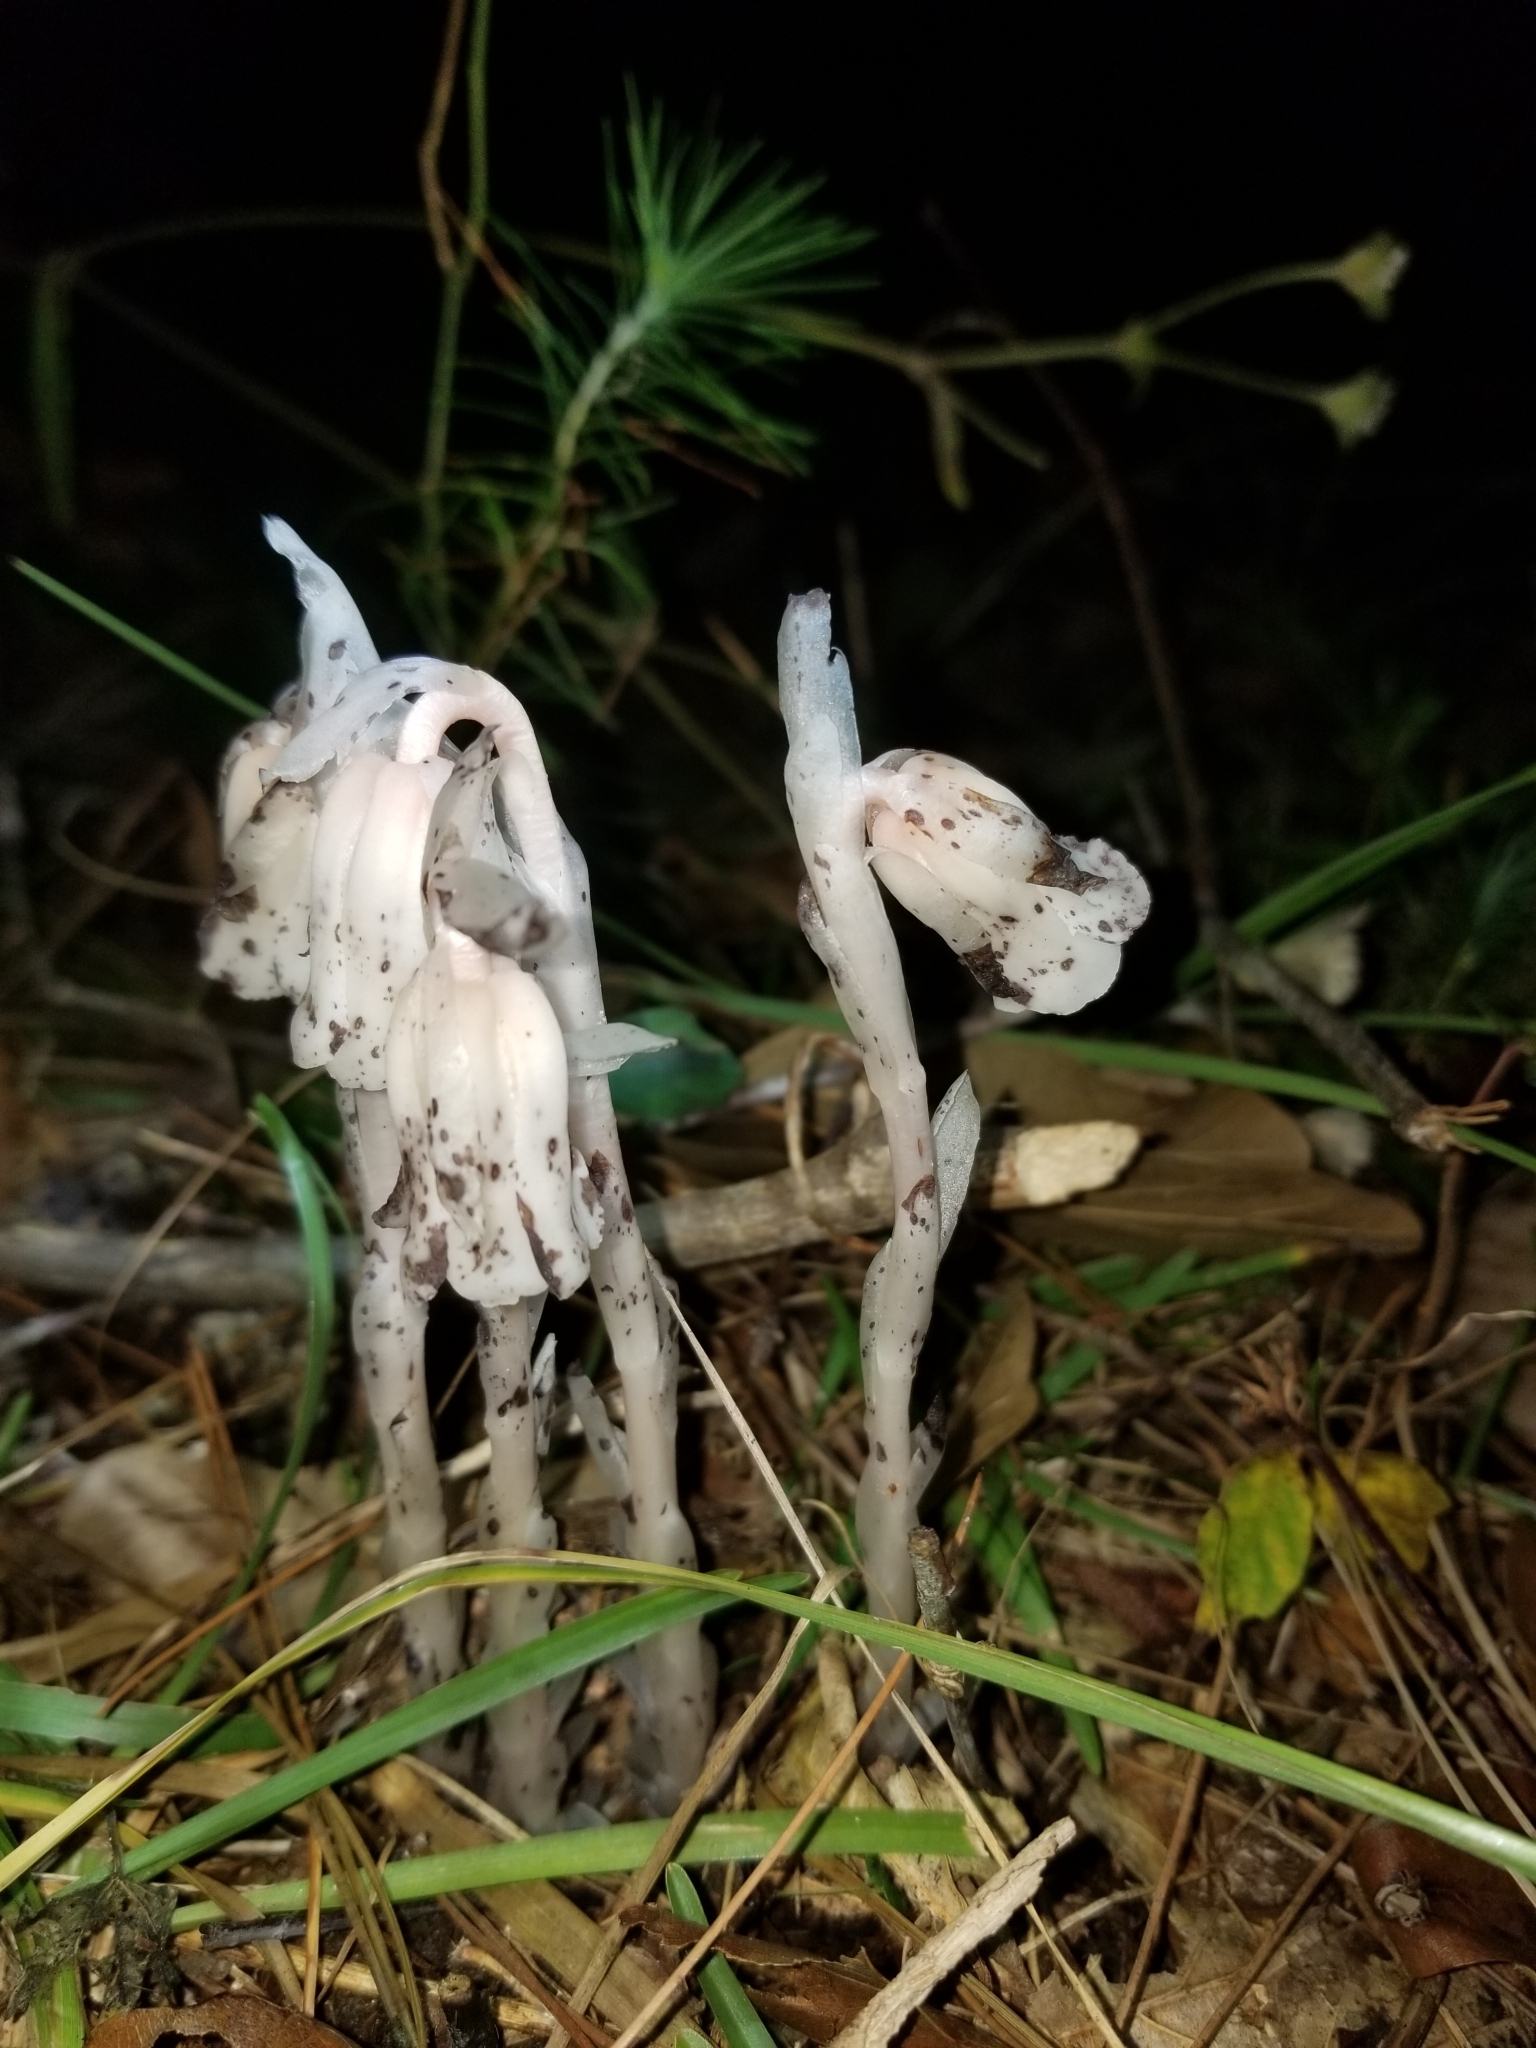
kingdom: Plantae
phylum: Tracheophyta
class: Magnoliopsida
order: Ericales
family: Ericaceae
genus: Monotropa
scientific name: Monotropa uniflora
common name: Convulsion root
